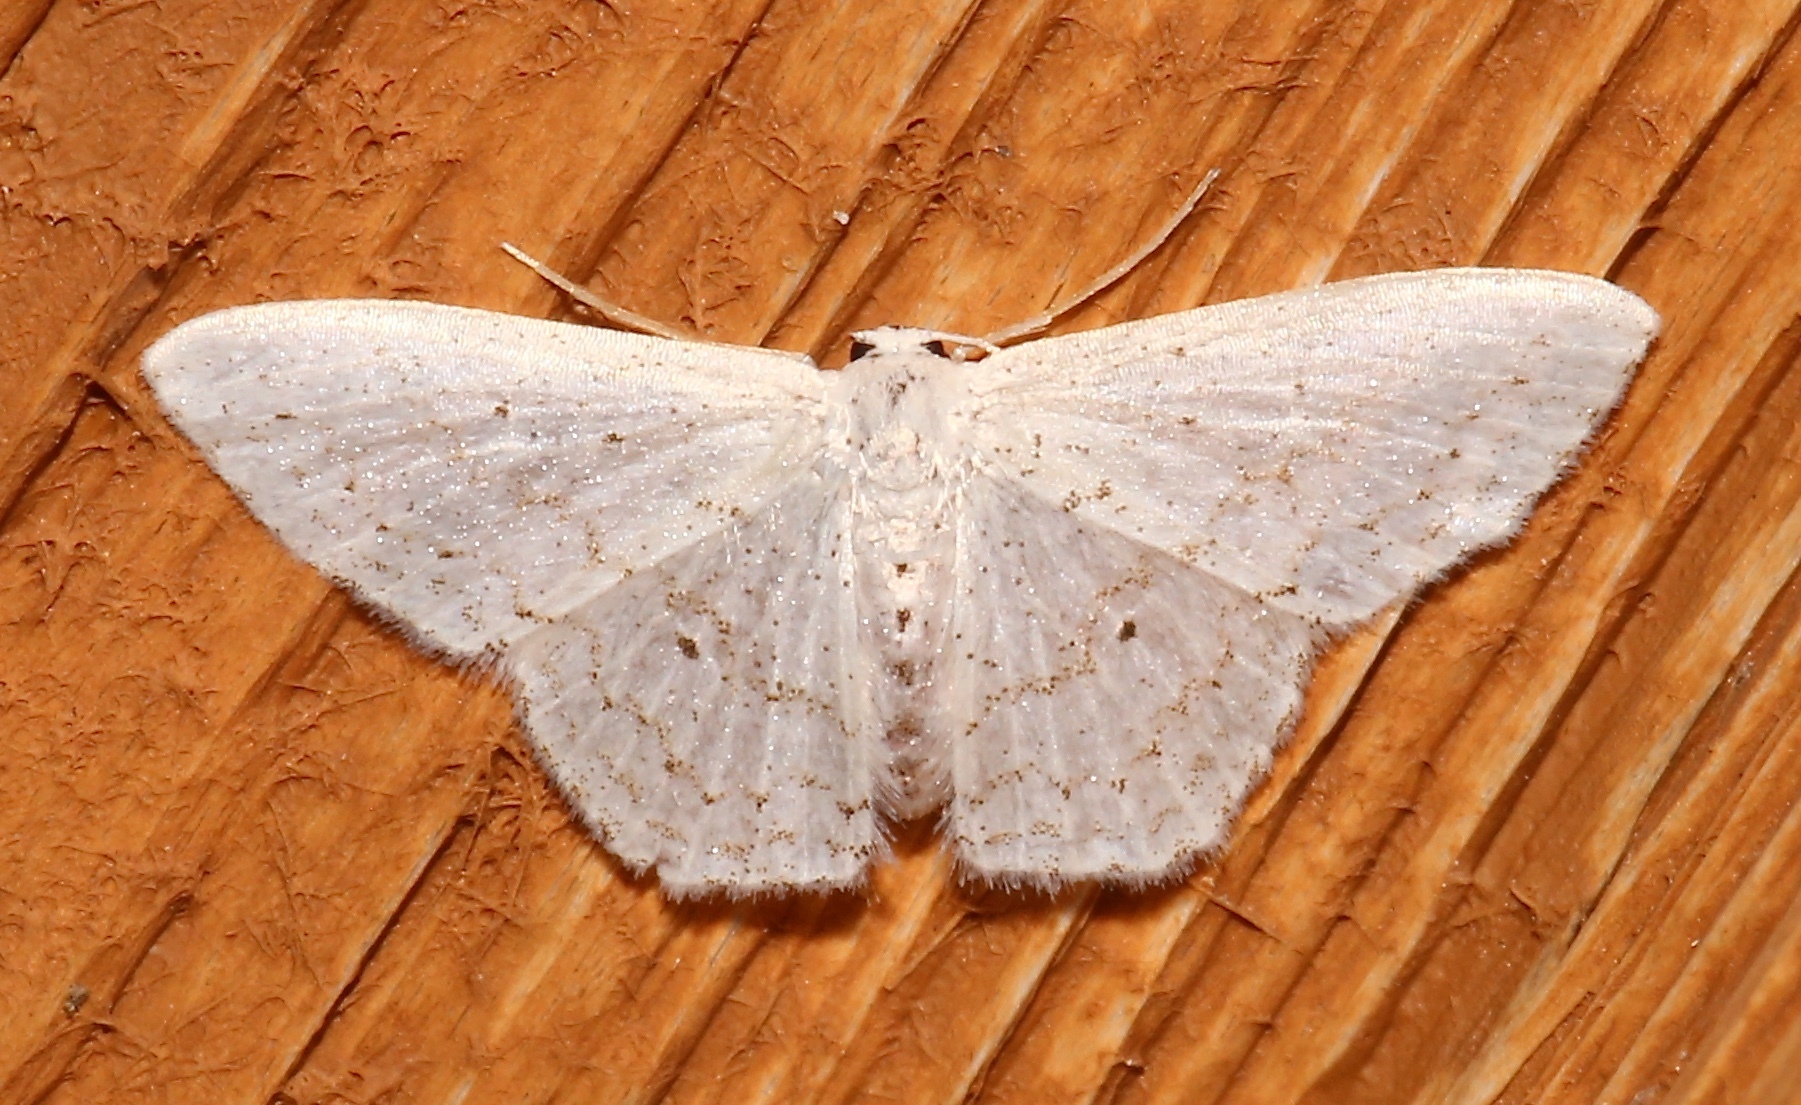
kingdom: Animalia
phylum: Arthropoda
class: Insecta
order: Lepidoptera
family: Geometridae
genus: Idaea
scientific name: Idaea tacturata
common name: Dot-lined wave
